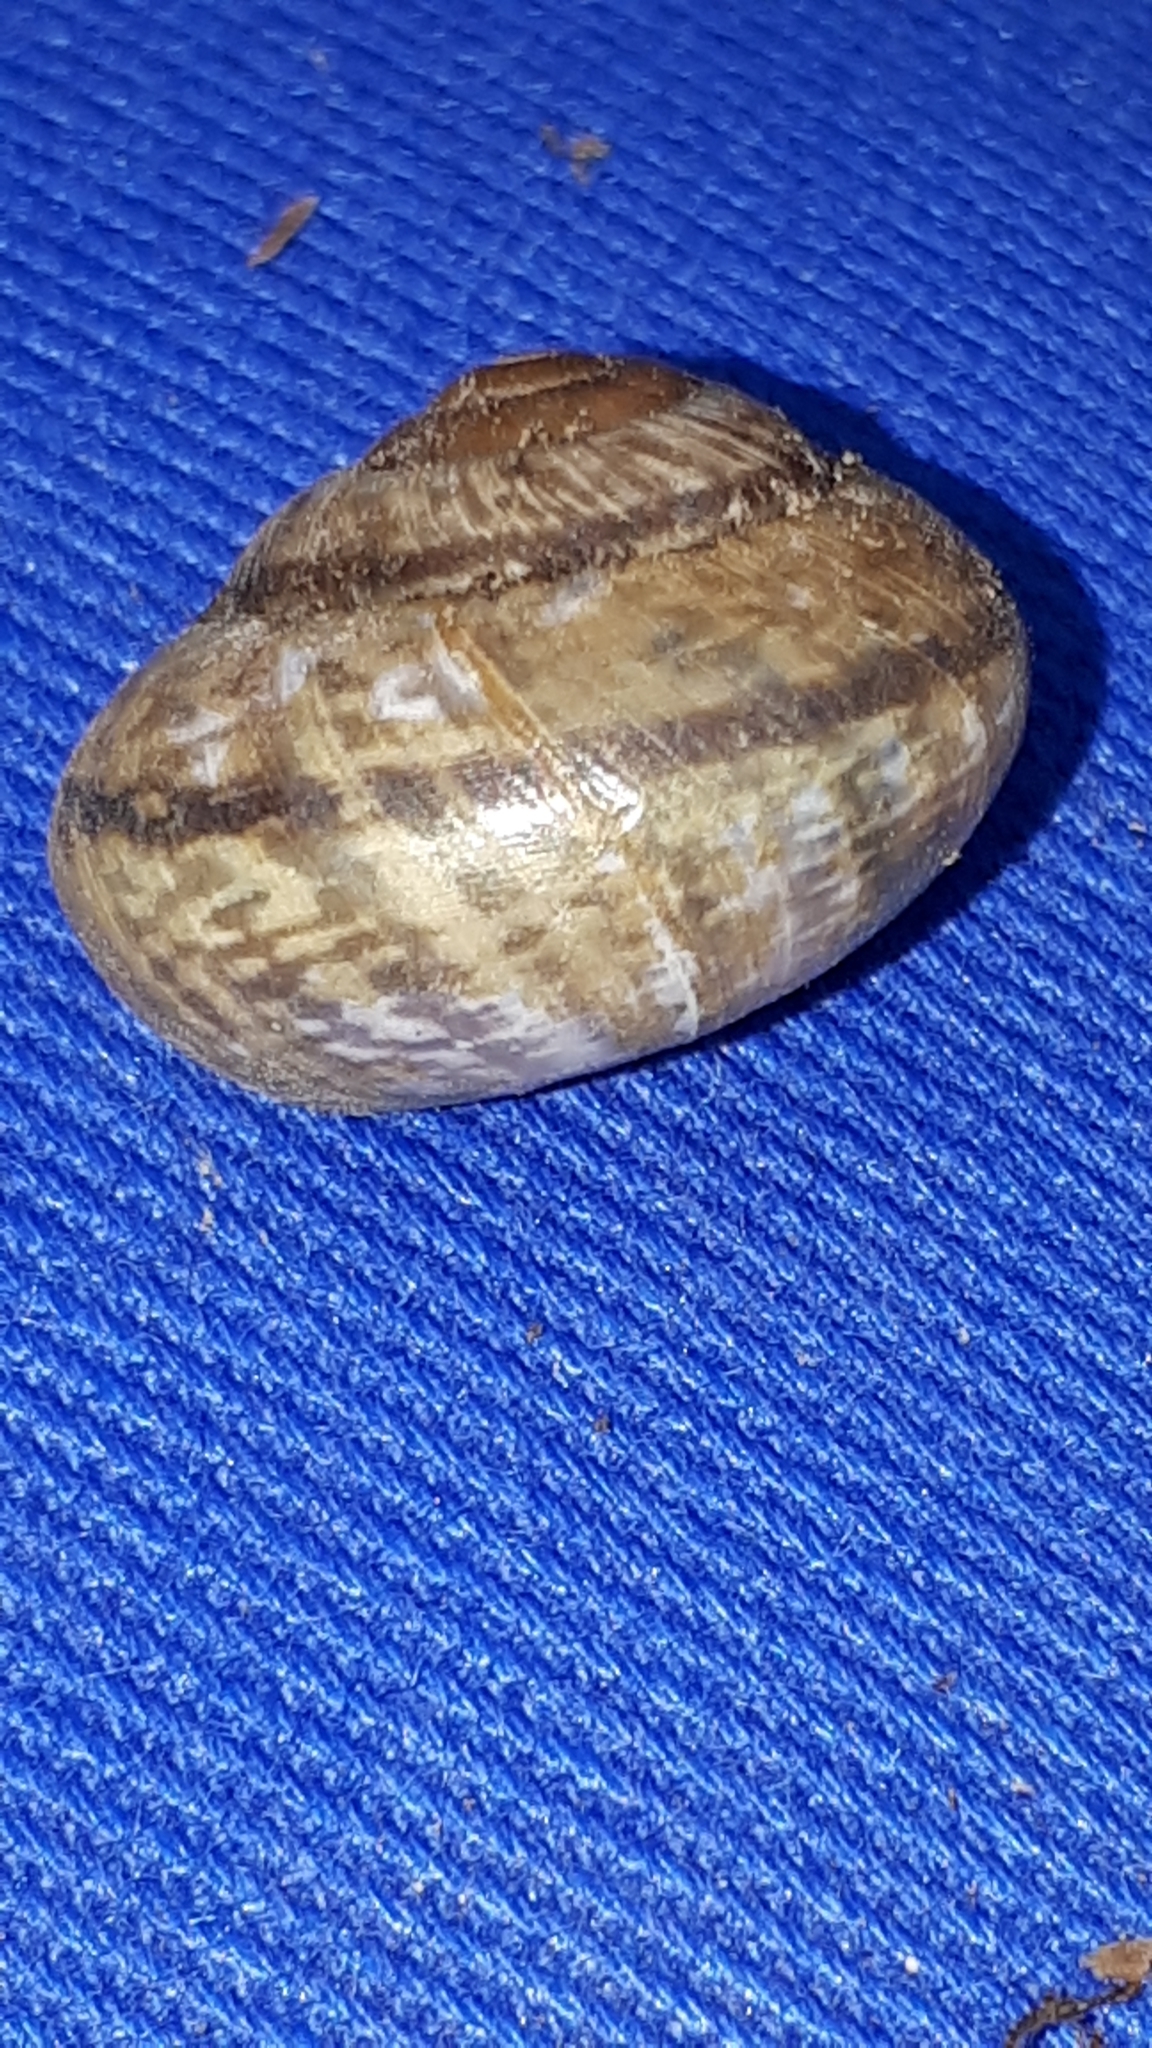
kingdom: Animalia
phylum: Mollusca
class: Gastropoda
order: Stylommatophora
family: Helicidae
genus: Arianta
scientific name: Arianta arbustorum
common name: Copse snail
